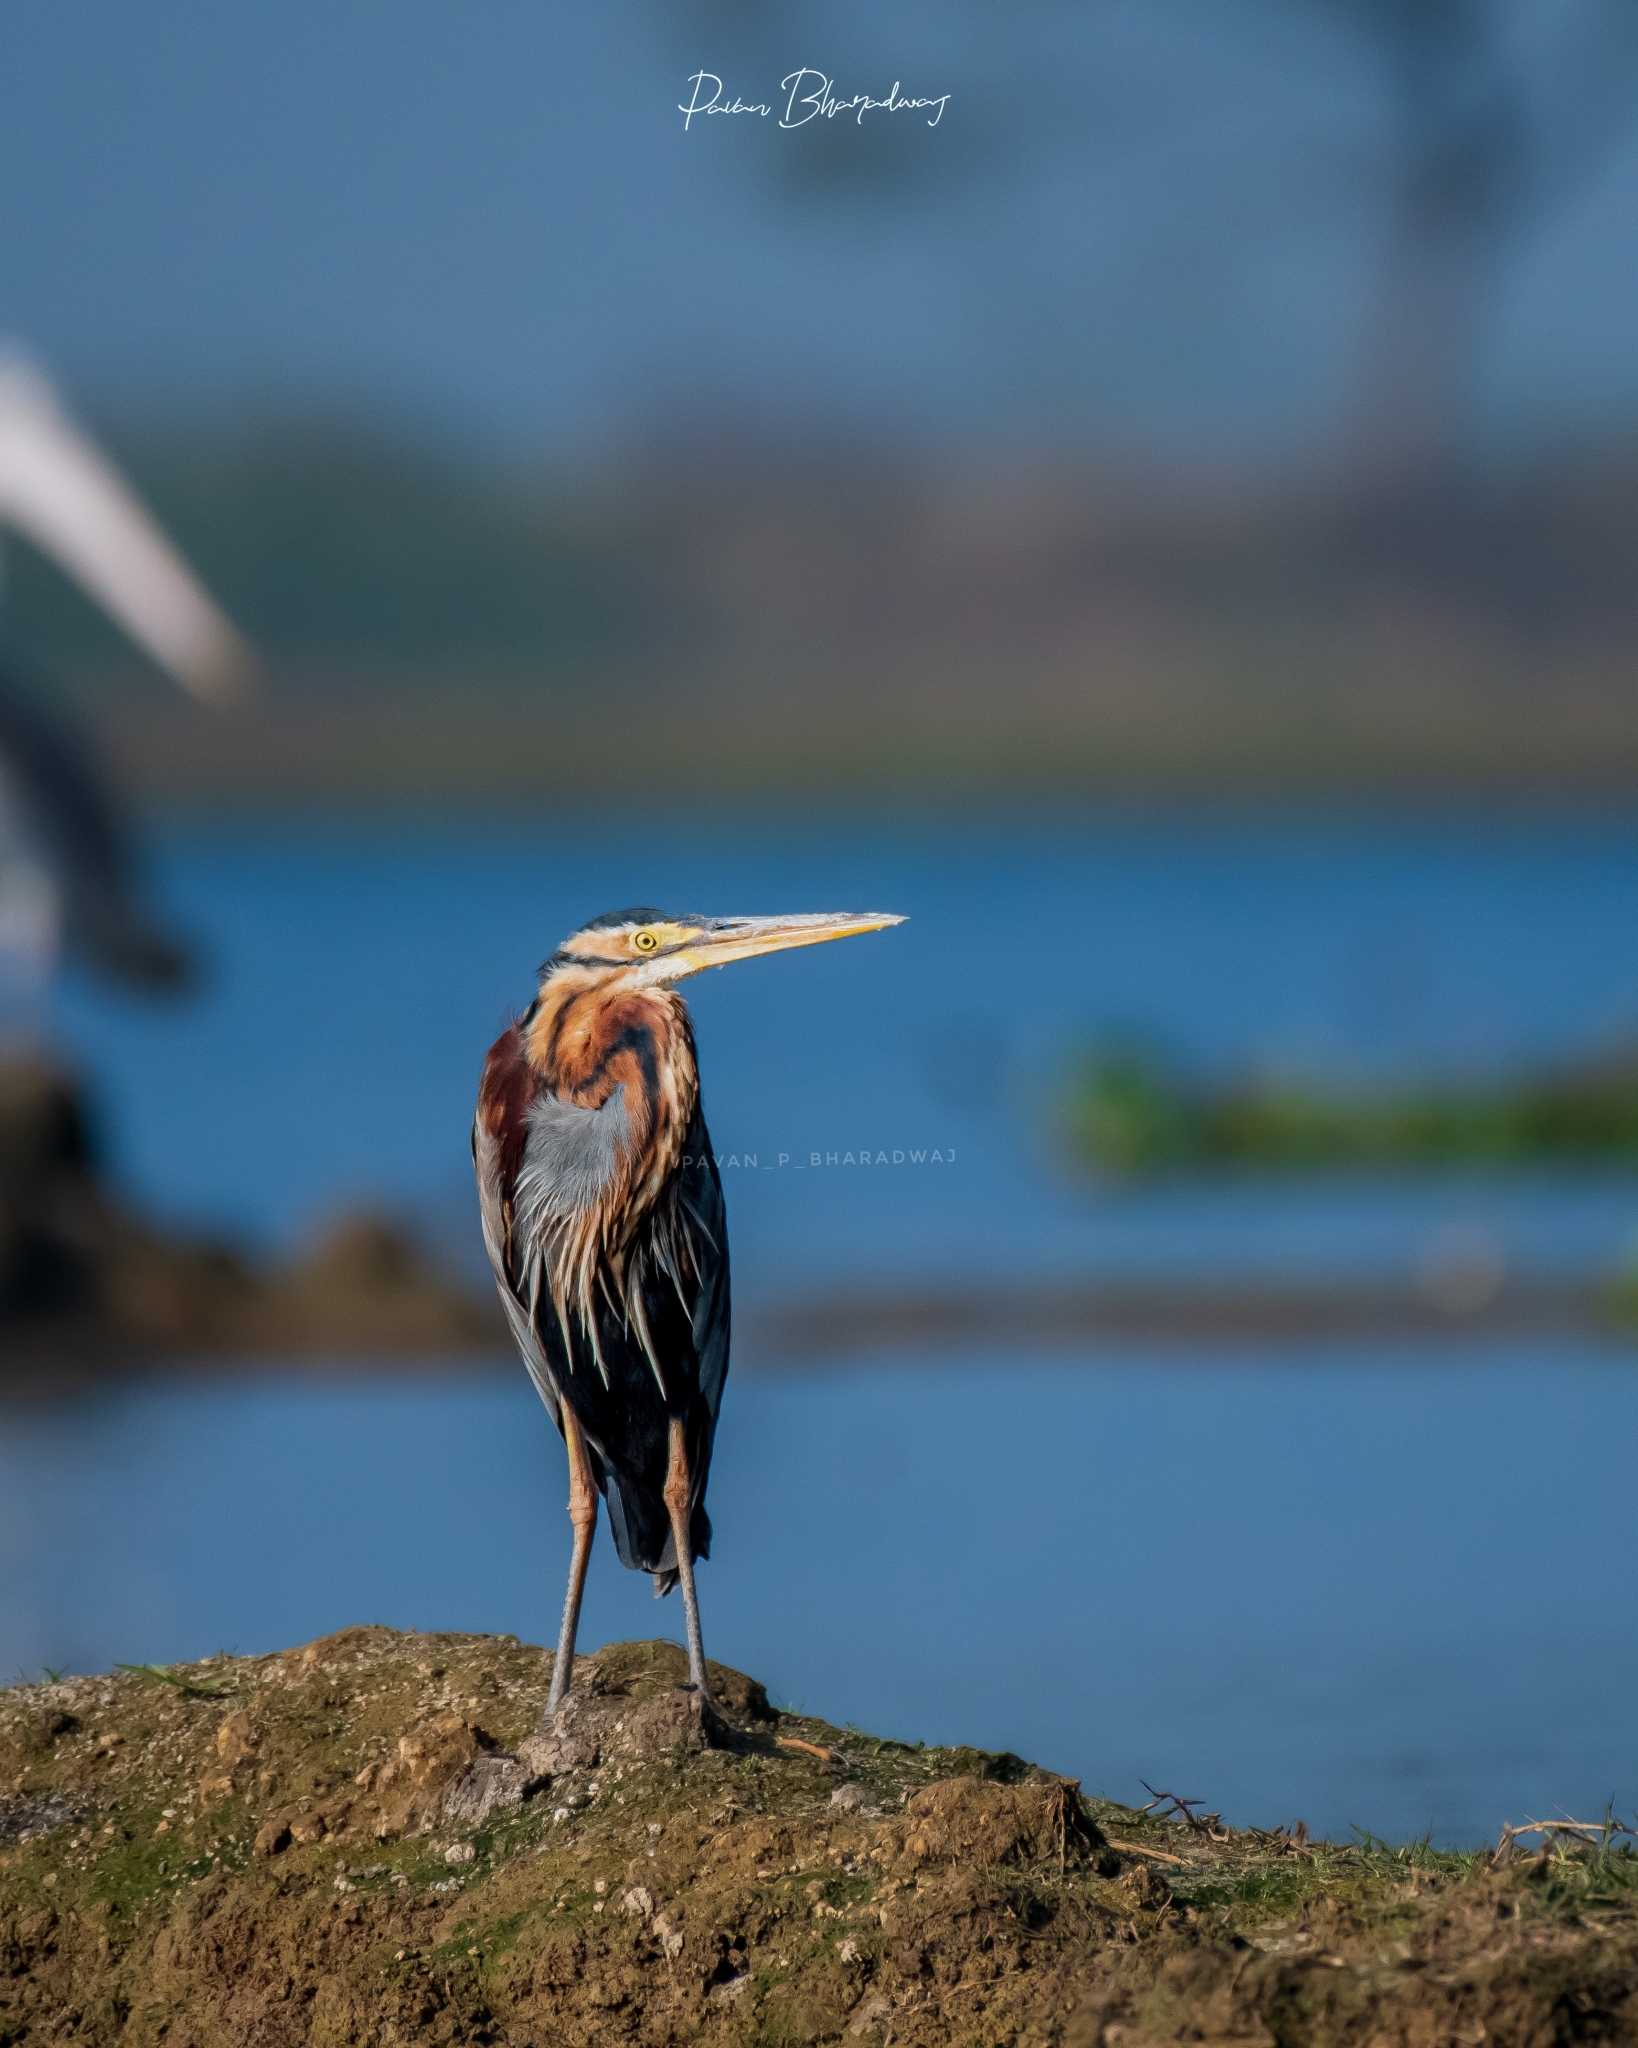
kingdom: Animalia
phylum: Chordata
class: Aves
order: Pelecaniformes
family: Ardeidae
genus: Ardea
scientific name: Ardea purpurea
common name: Purple heron
